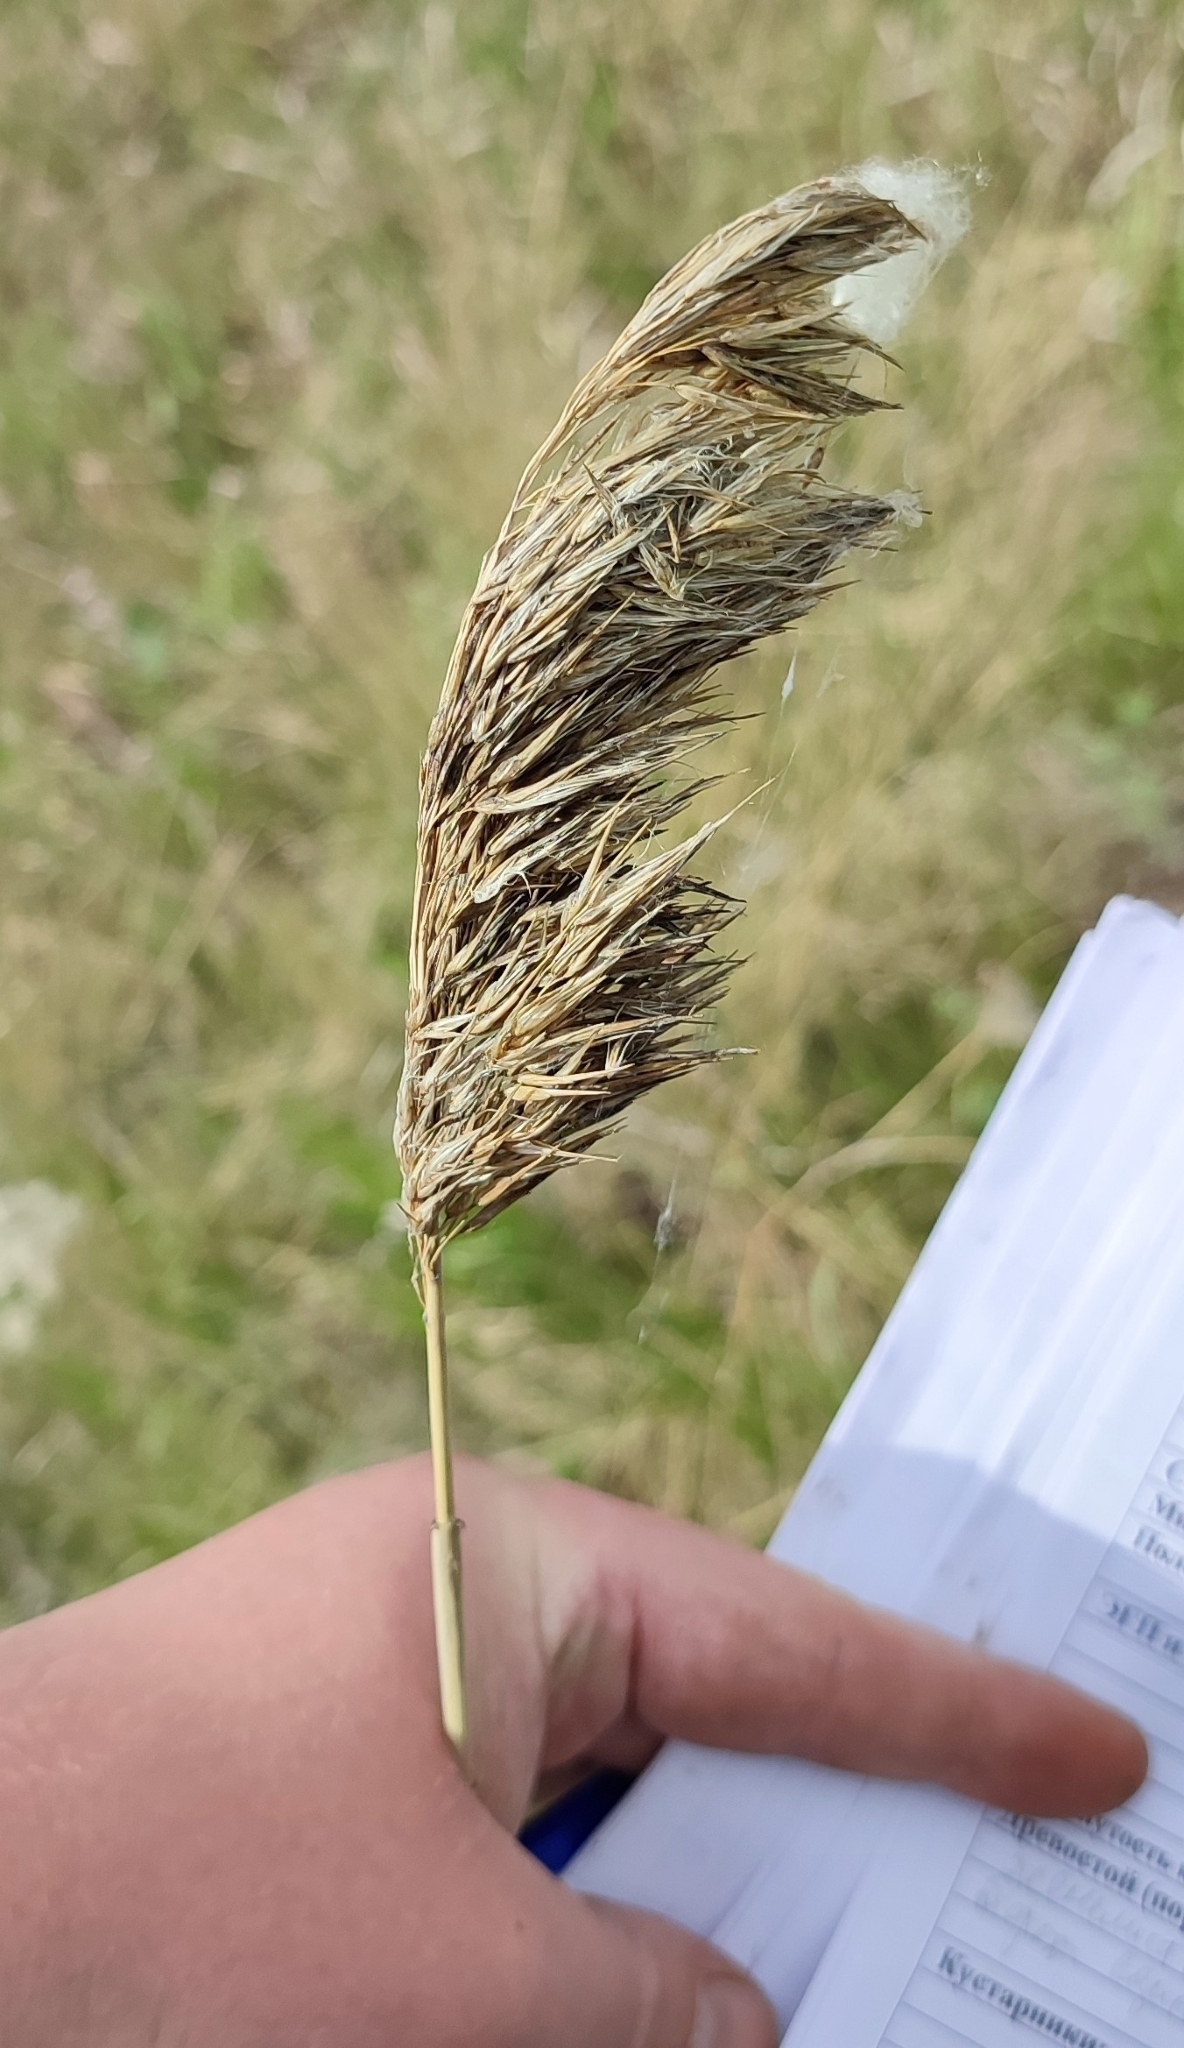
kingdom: Plantae
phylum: Tracheophyta
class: Liliopsida
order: Poales
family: Poaceae
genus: Phragmites
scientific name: Phragmites australis
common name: Common reed
